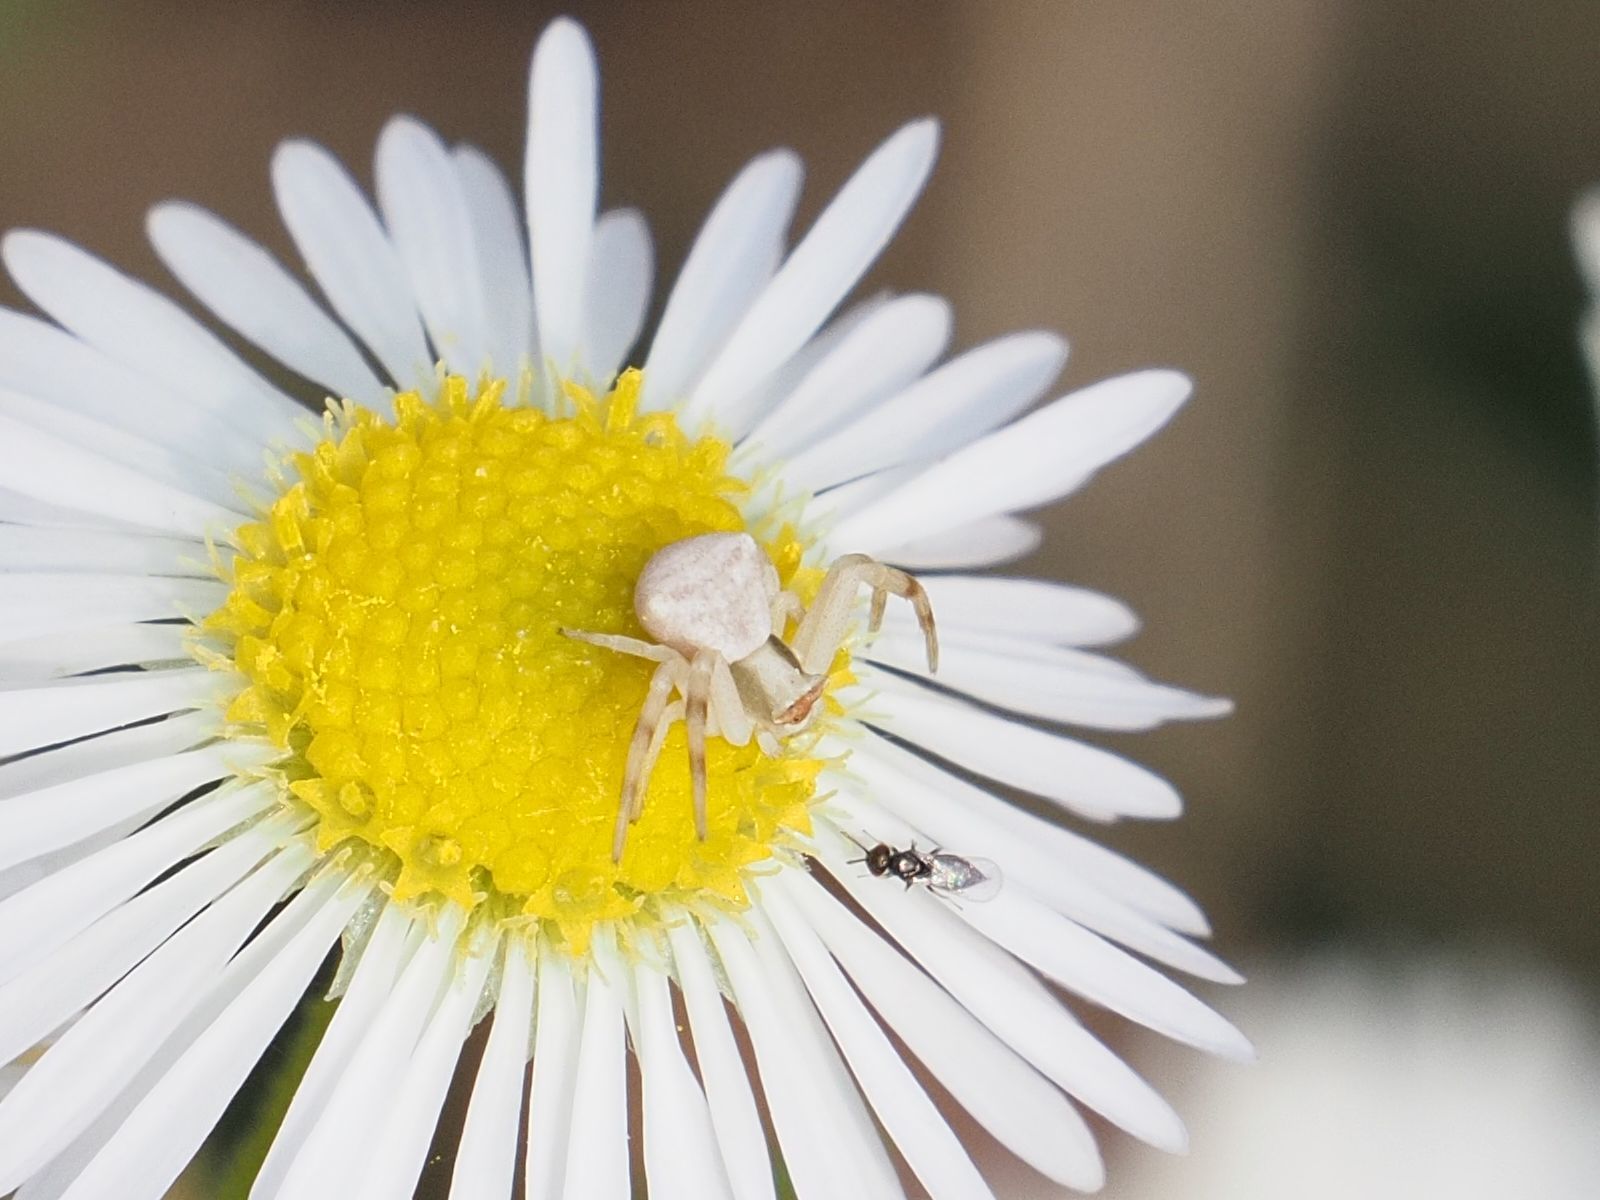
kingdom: Animalia
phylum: Arthropoda
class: Arachnida
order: Araneae
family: Thomisidae
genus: Thomisus
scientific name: Thomisus onustus
